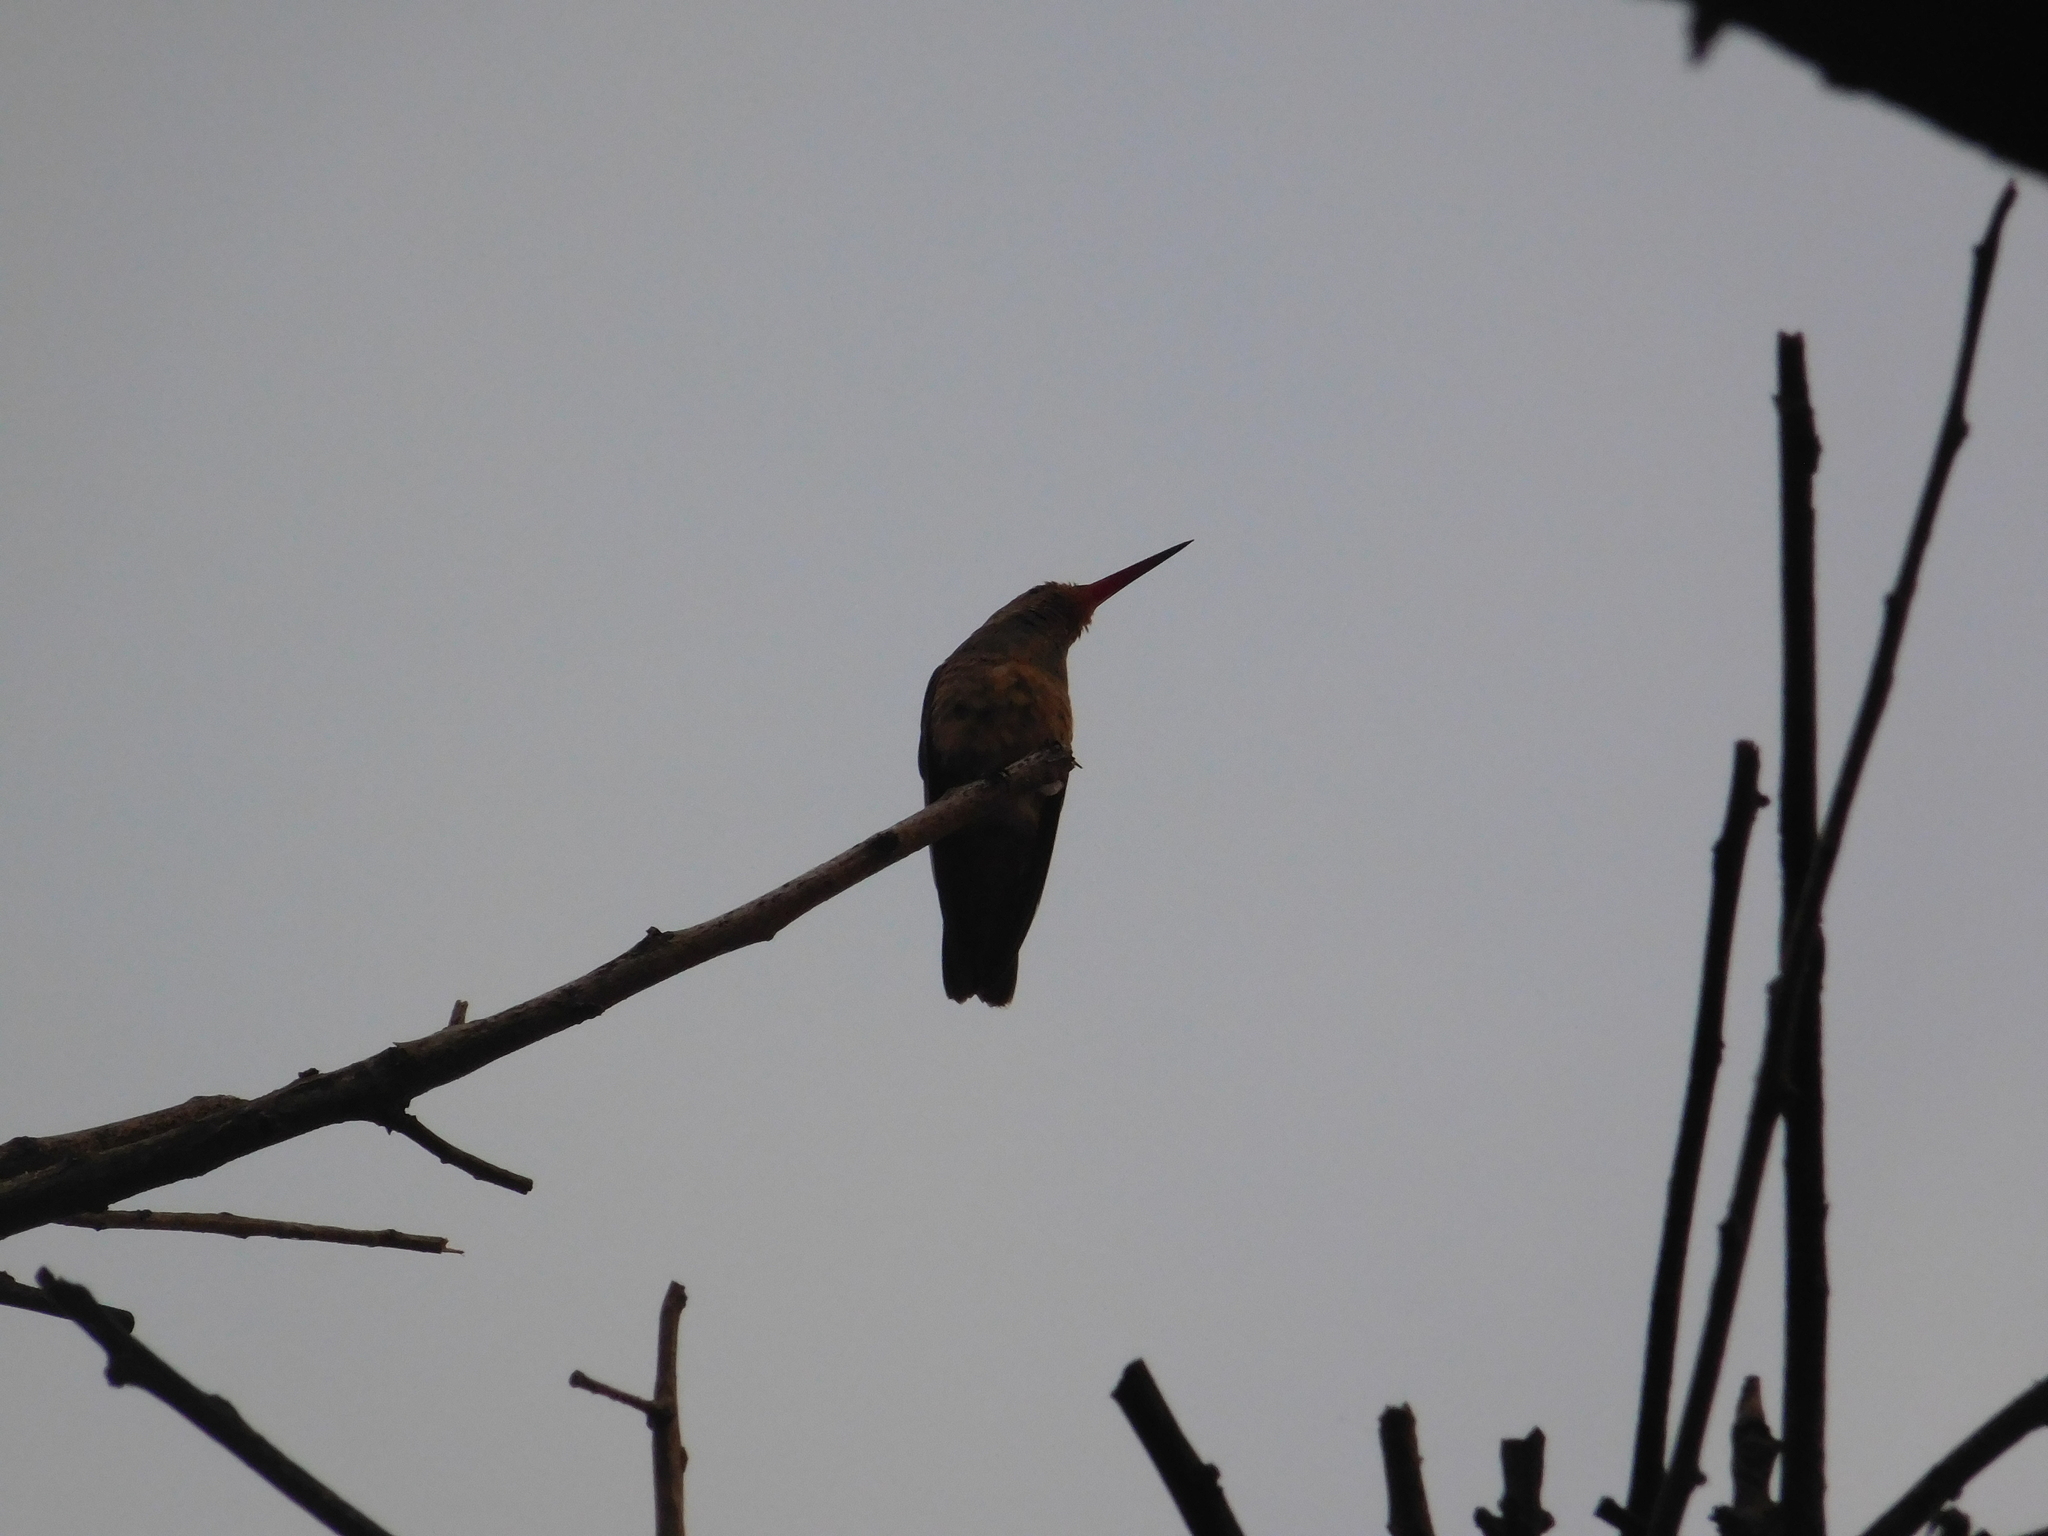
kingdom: Animalia
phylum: Chordata
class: Aves
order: Apodiformes
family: Trochilidae
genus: Hylocharis
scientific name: Hylocharis chrysura
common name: Gilded sapphire
